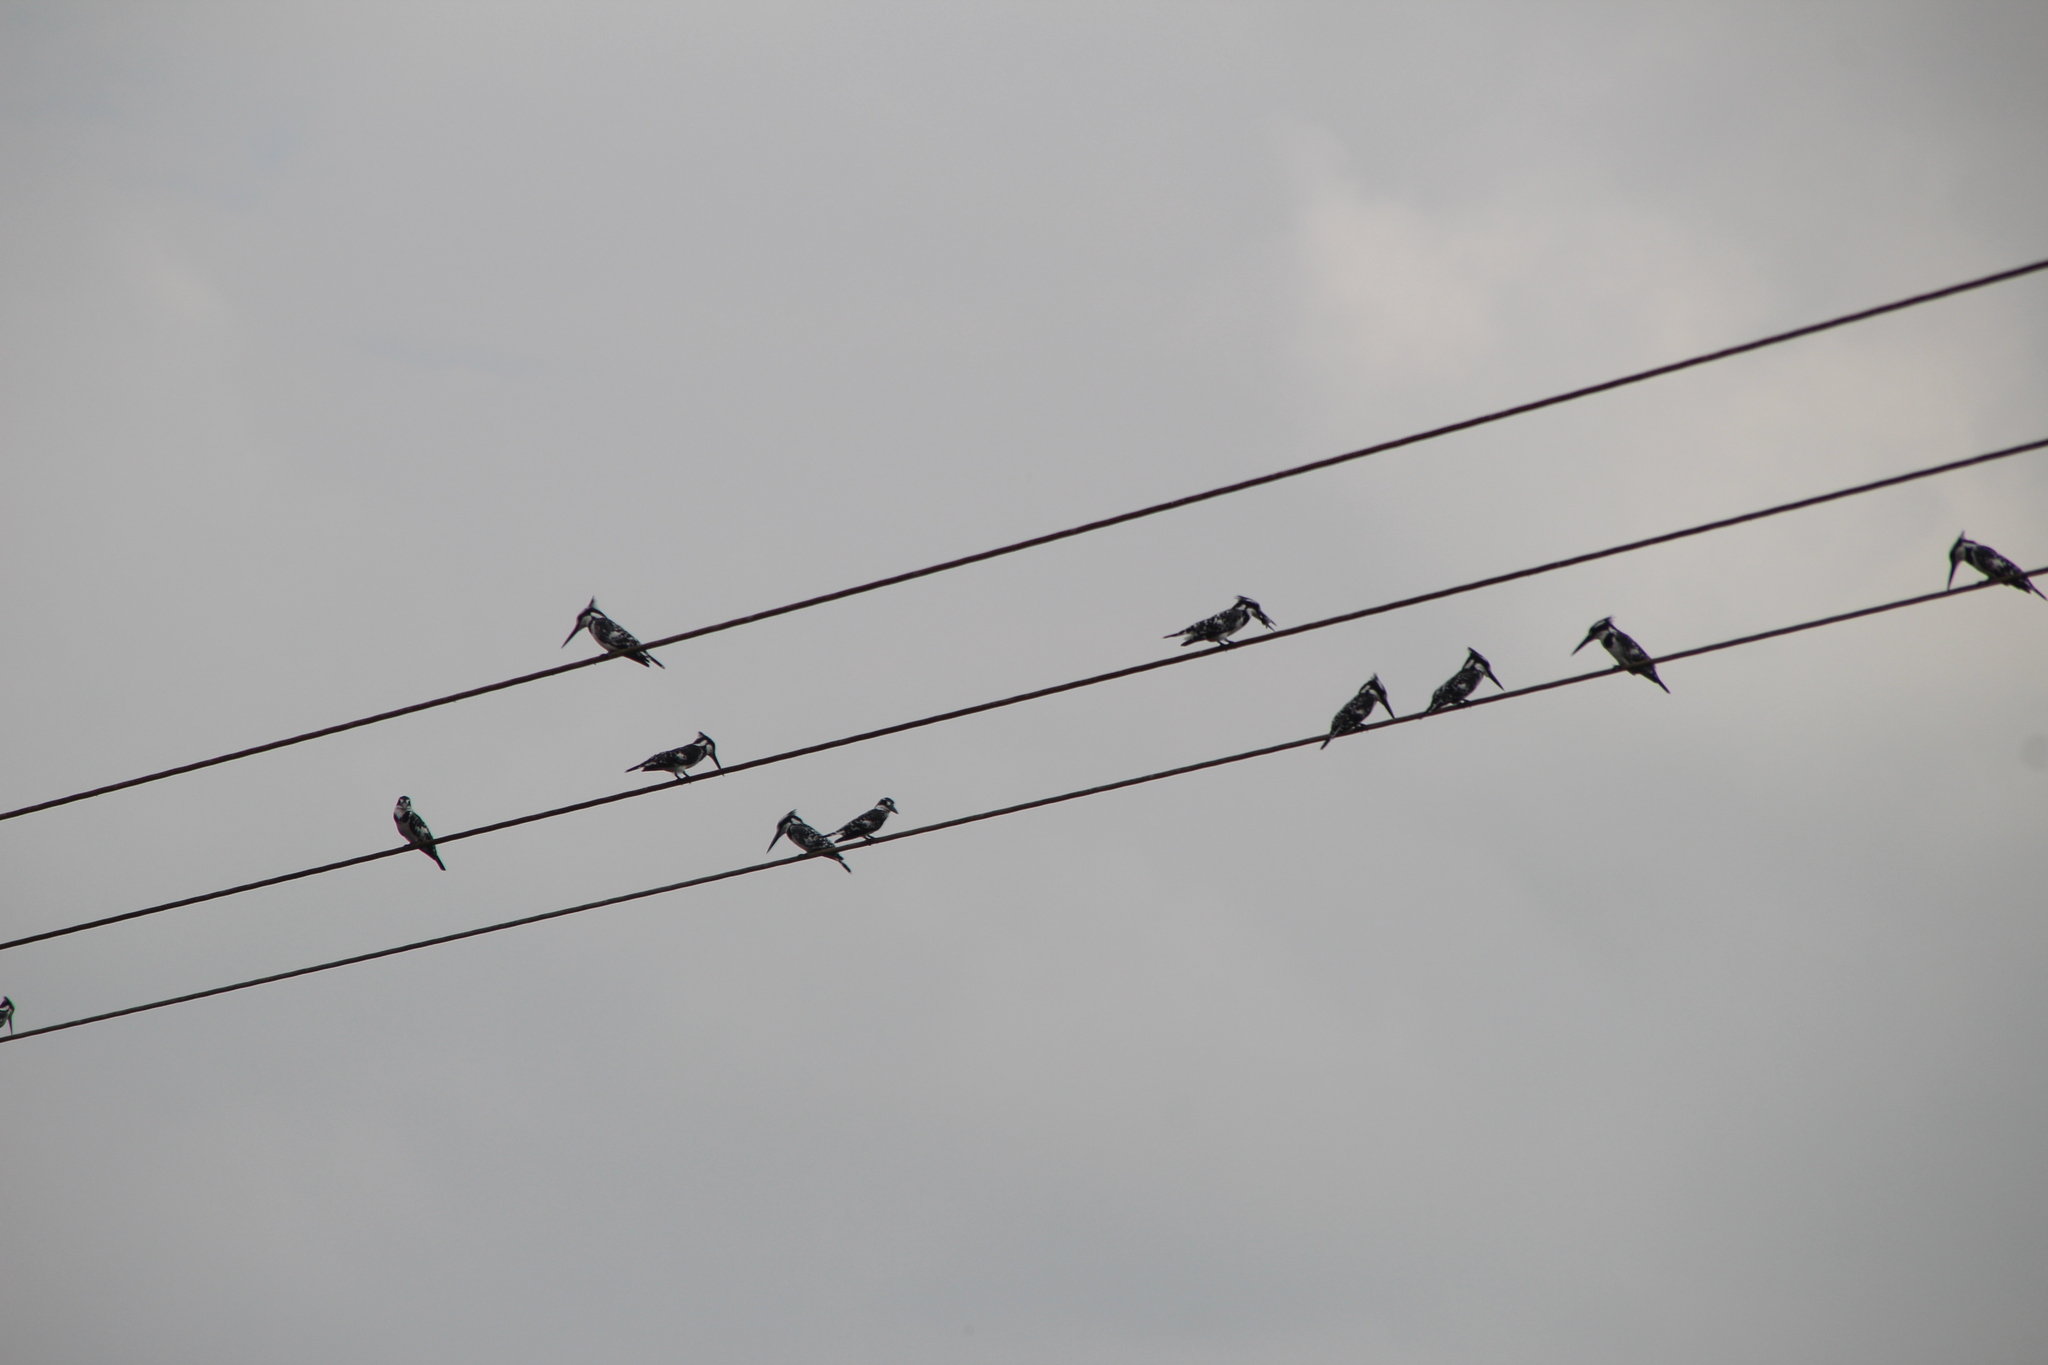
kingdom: Animalia
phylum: Chordata
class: Aves
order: Coraciiformes
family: Alcedinidae
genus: Ceryle
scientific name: Ceryle rudis
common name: Pied kingfisher
